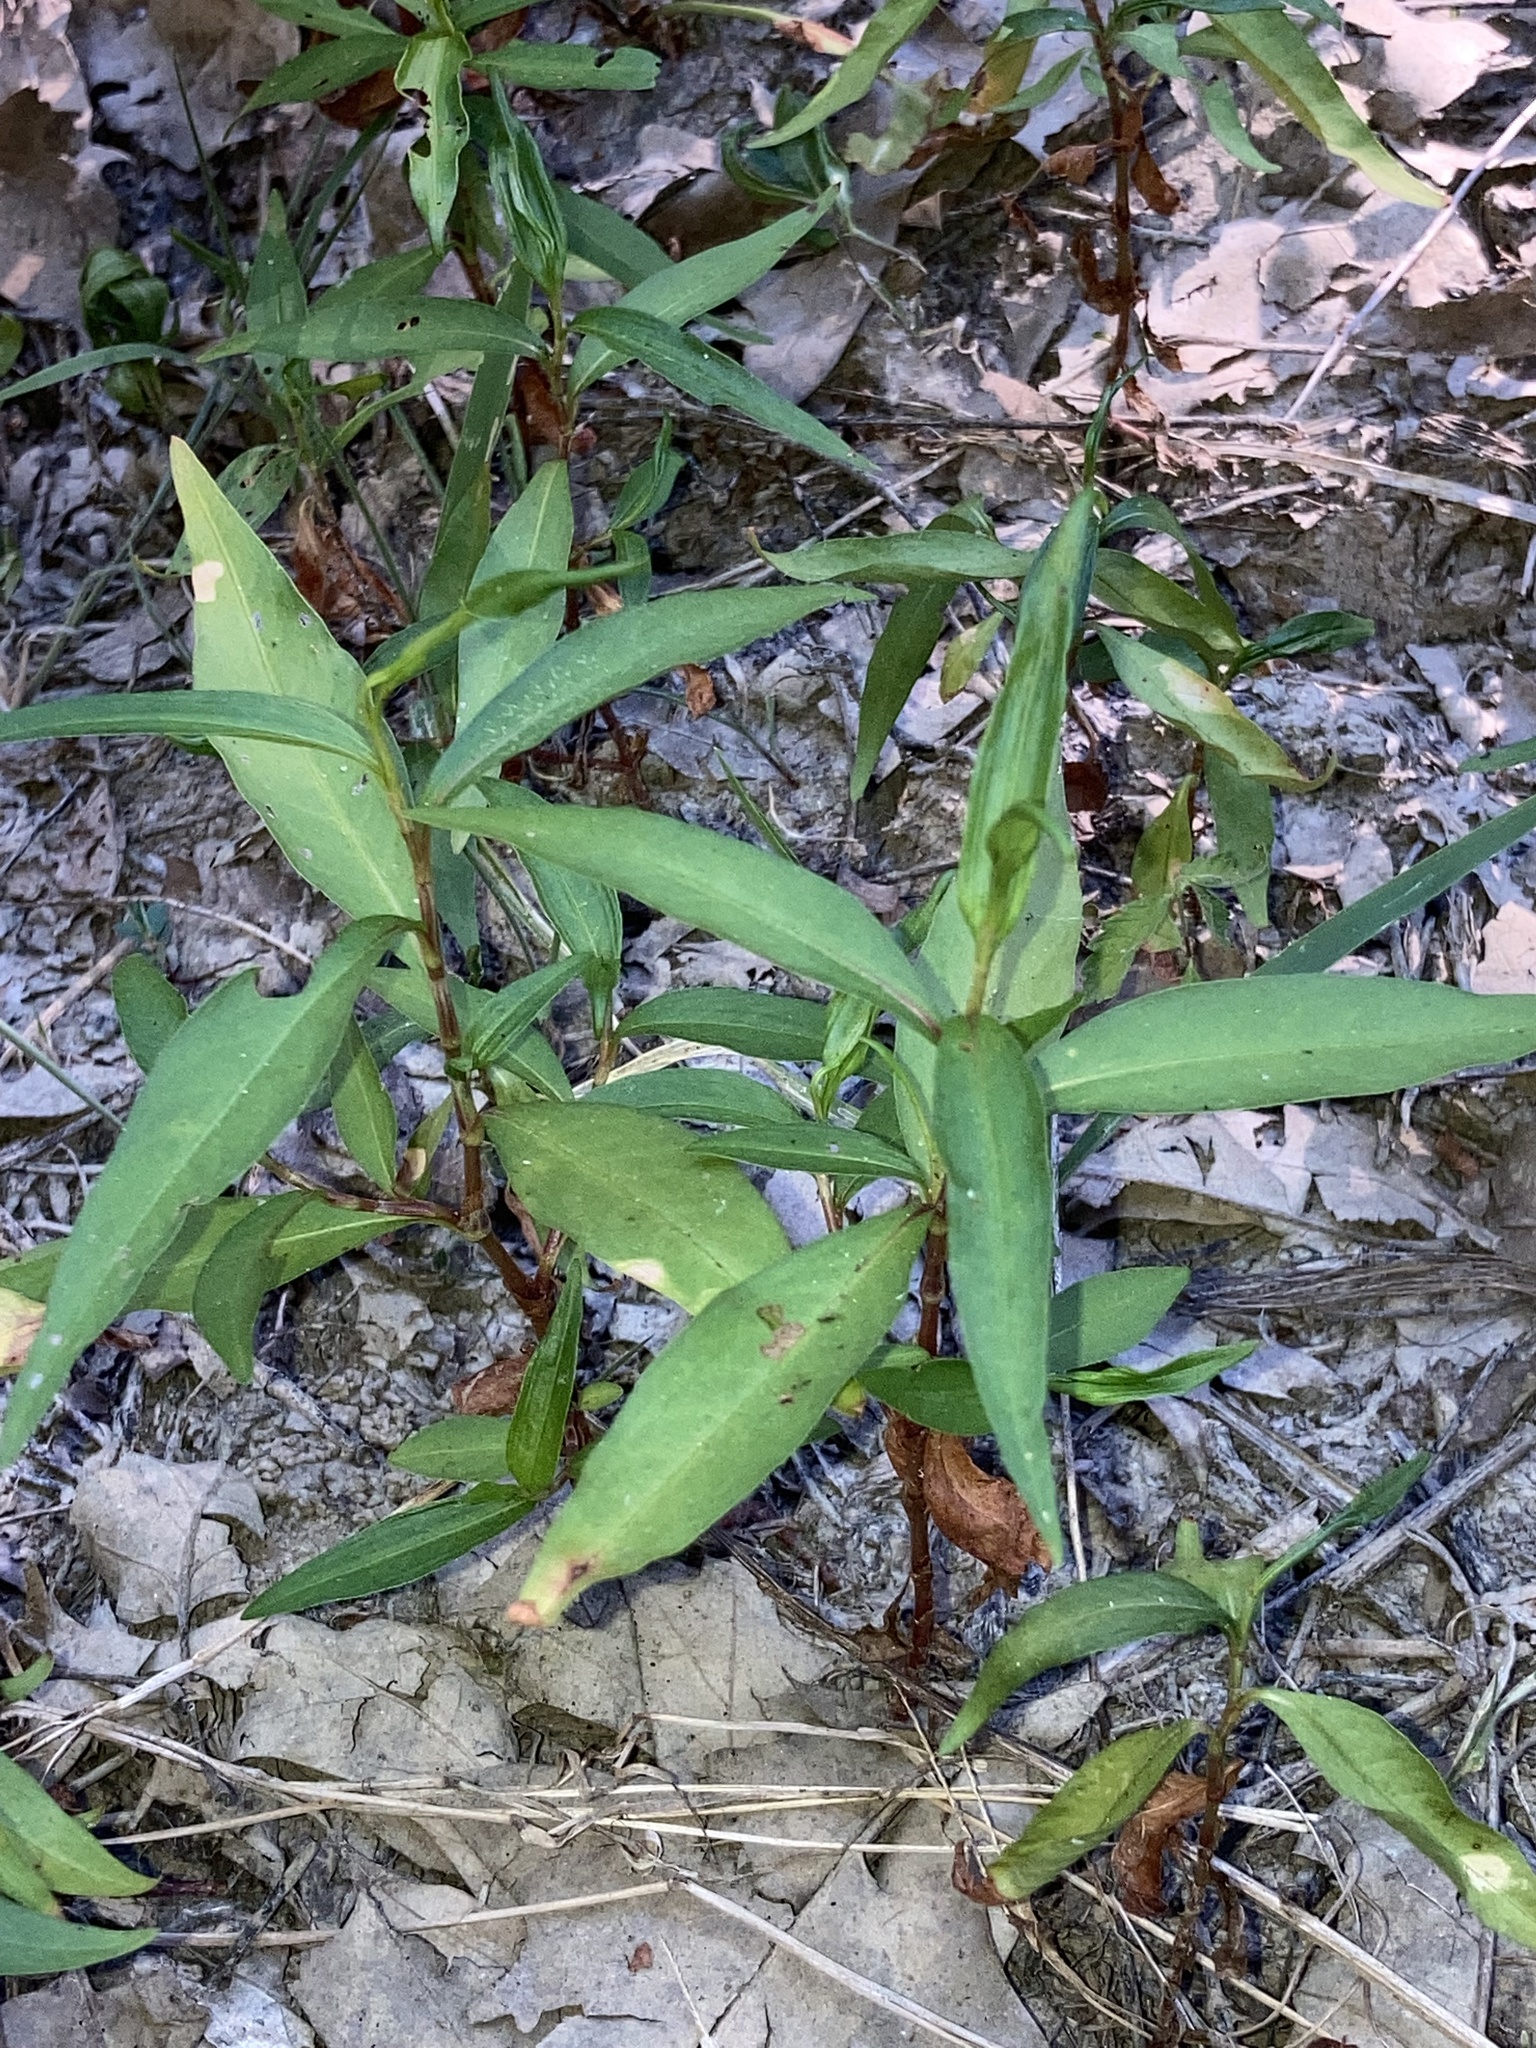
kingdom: Plantae
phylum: Tracheophyta
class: Magnoliopsida
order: Caryophyllales
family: Polygonaceae
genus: Persicaria
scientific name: Persicaria lapathifolia
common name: Curlytop knotweed
